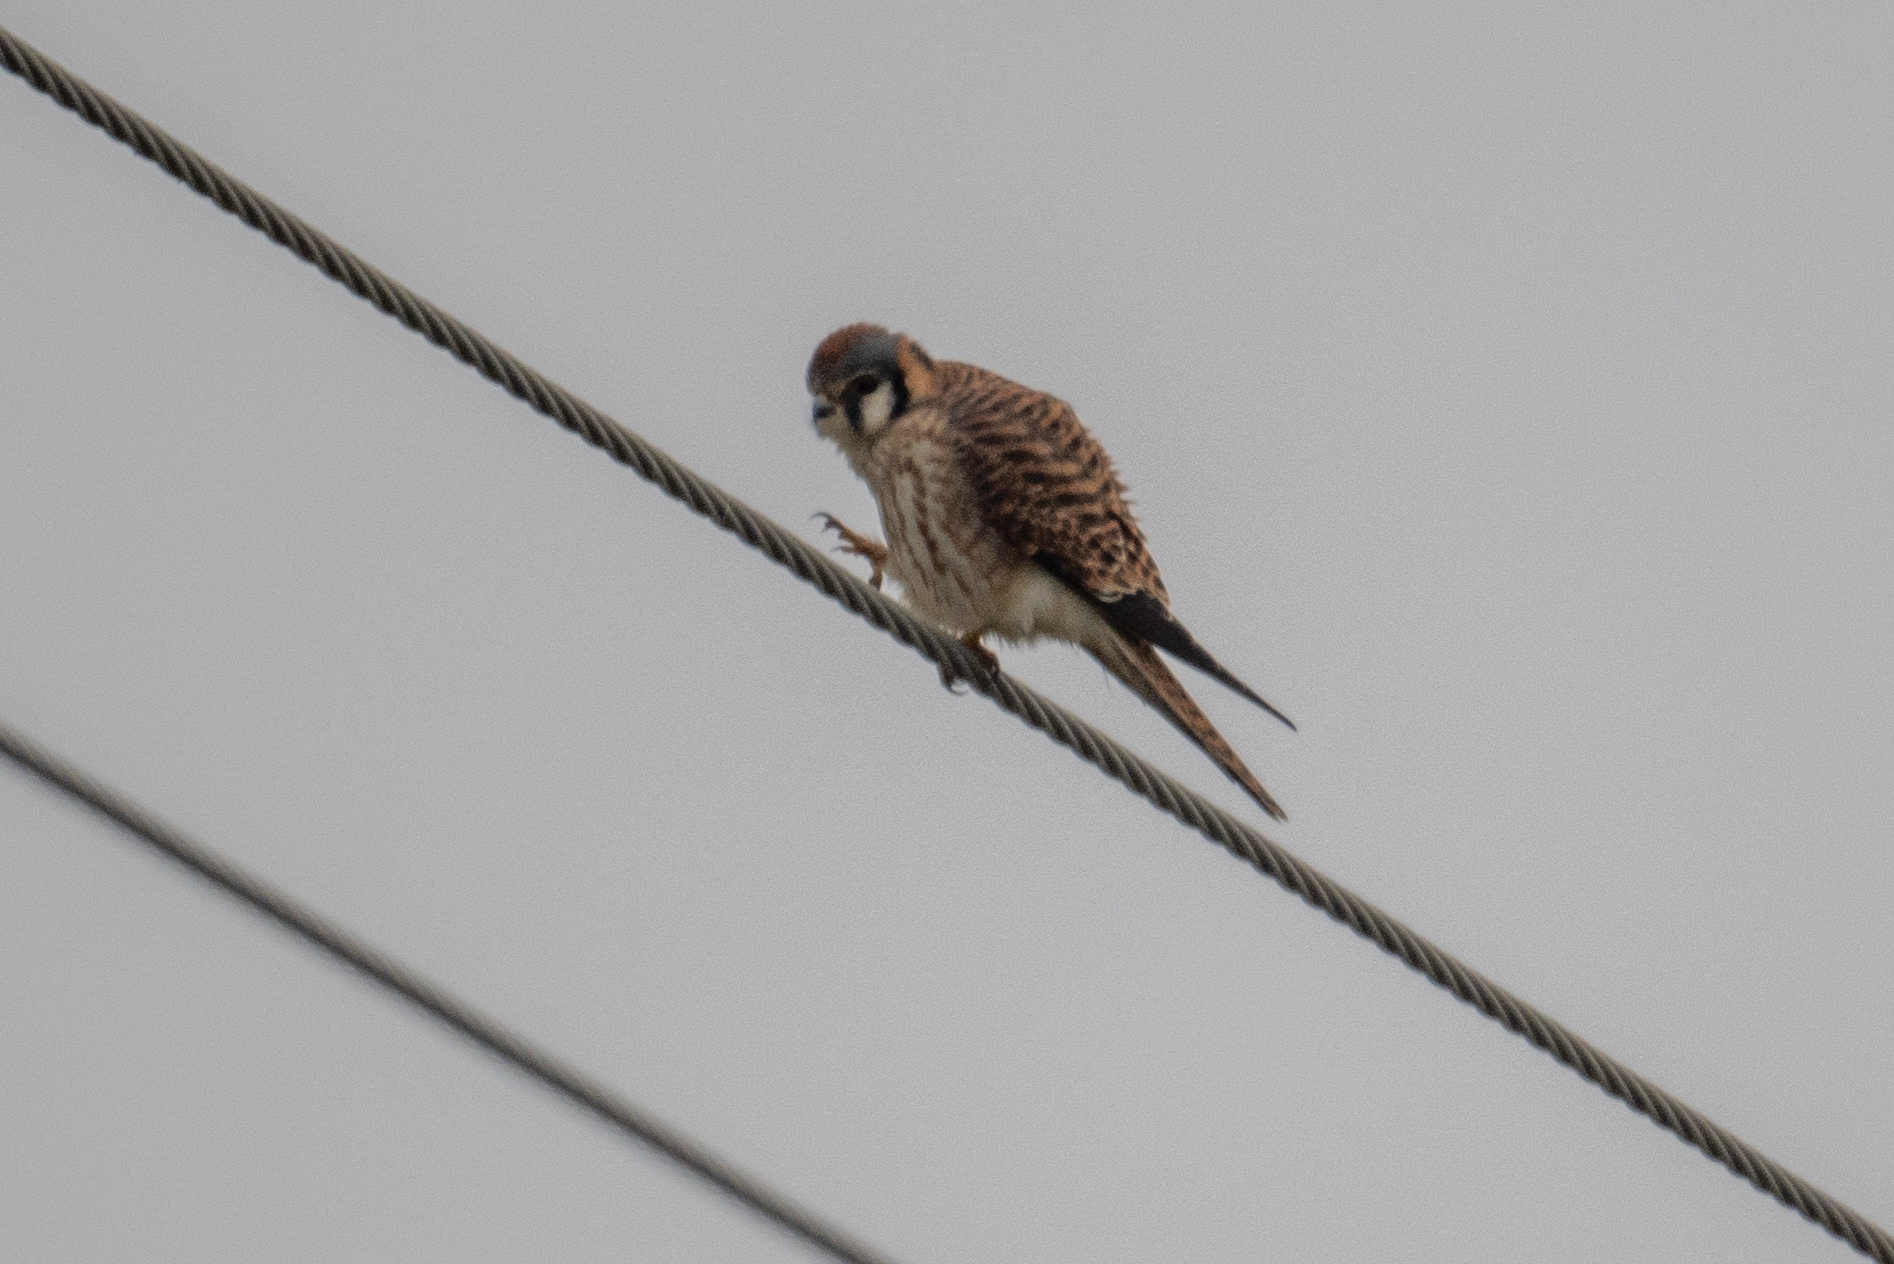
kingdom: Animalia
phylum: Chordata
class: Aves
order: Falconiformes
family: Falconidae
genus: Falco
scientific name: Falco sparverius
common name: American kestrel
